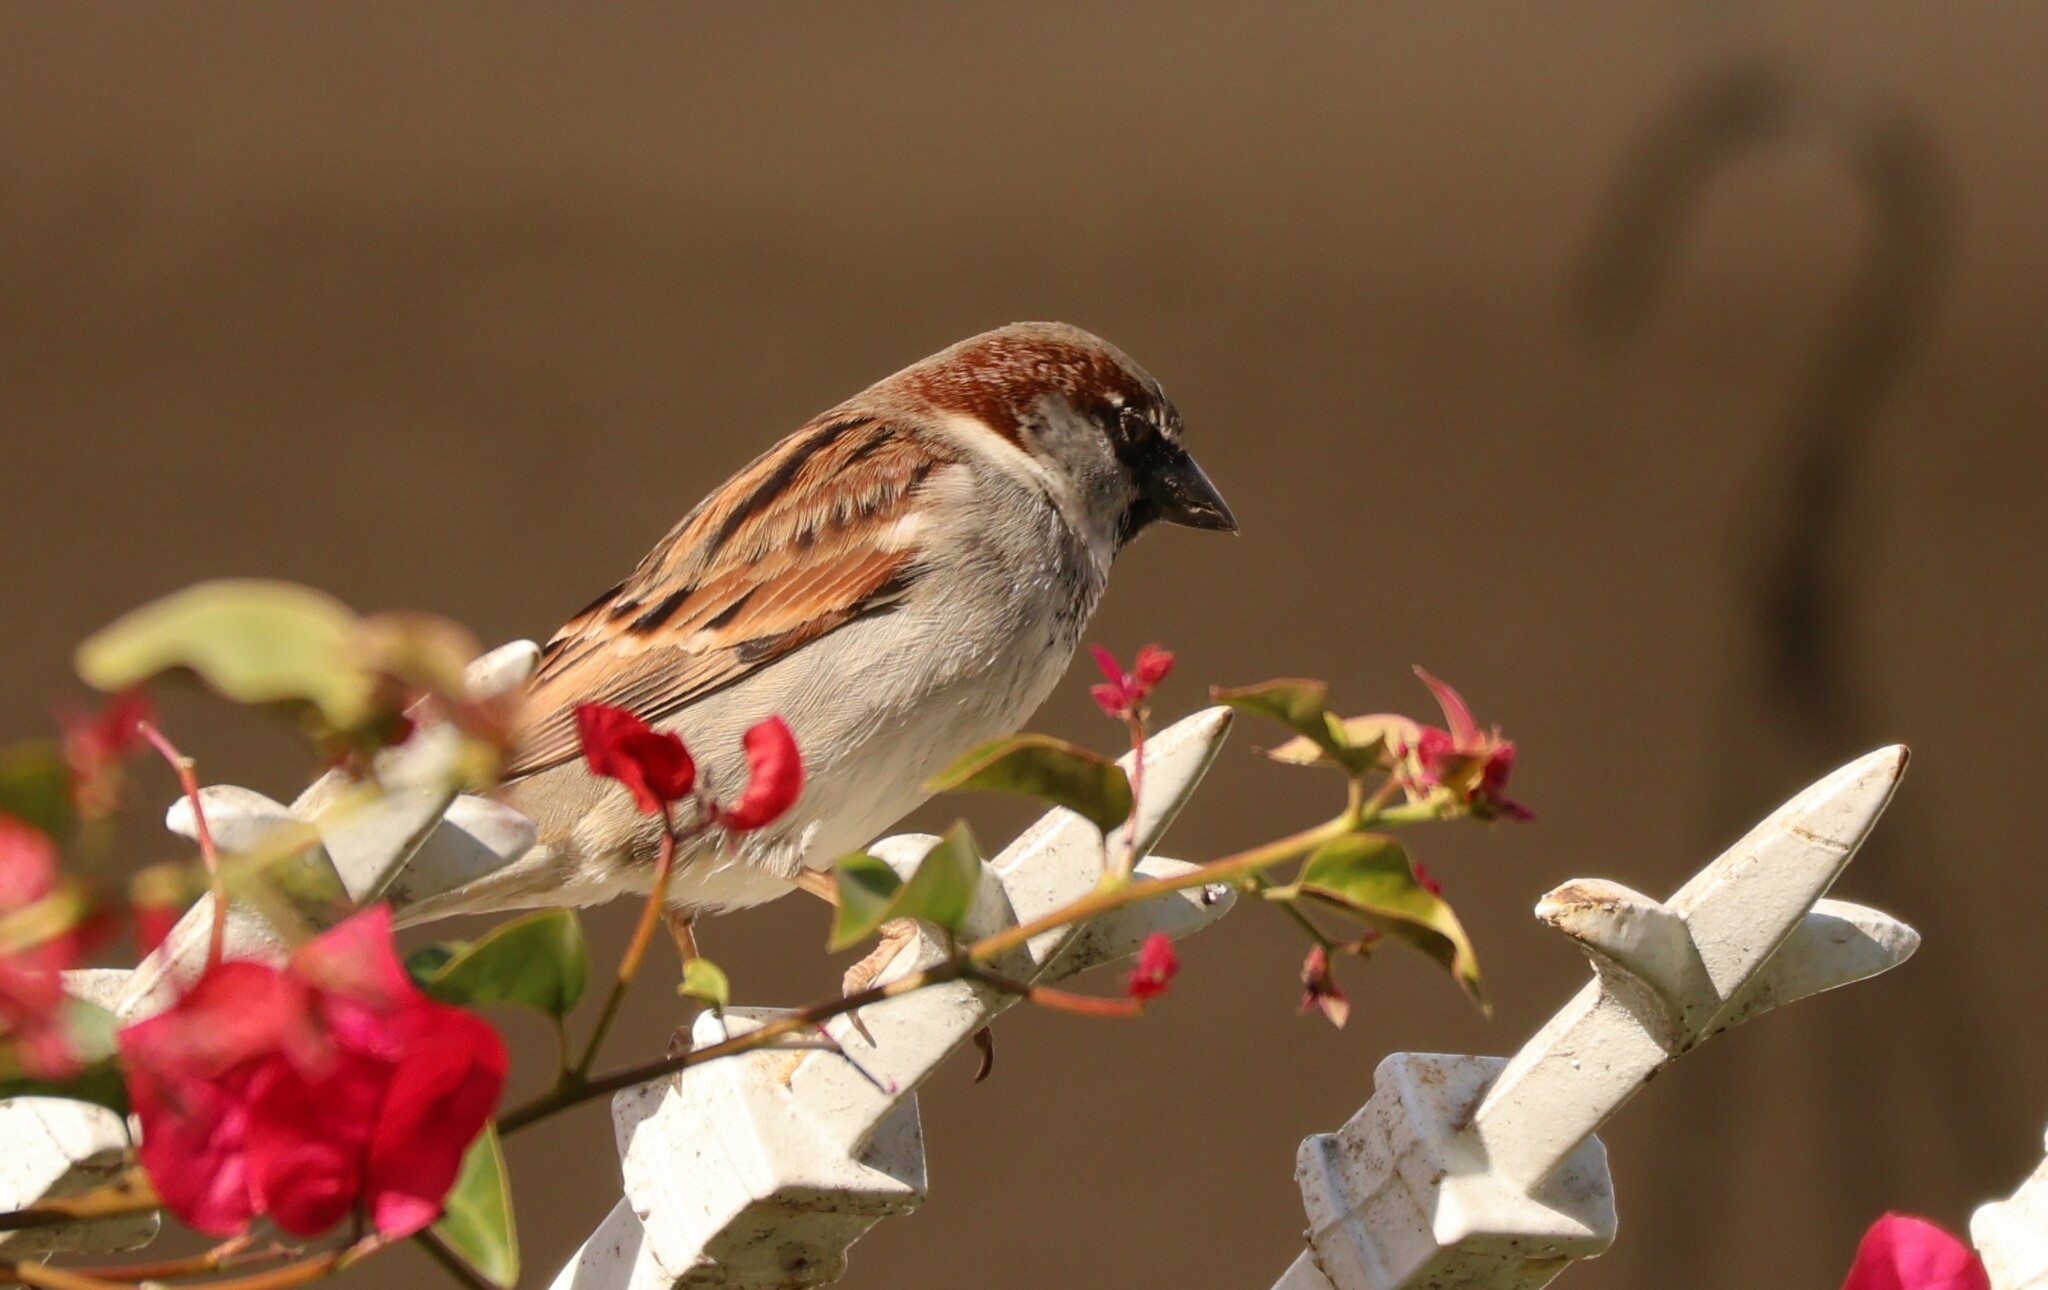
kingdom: Animalia
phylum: Chordata
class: Aves
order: Passeriformes
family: Passeridae
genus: Passer
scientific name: Passer domesticus
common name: House sparrow
